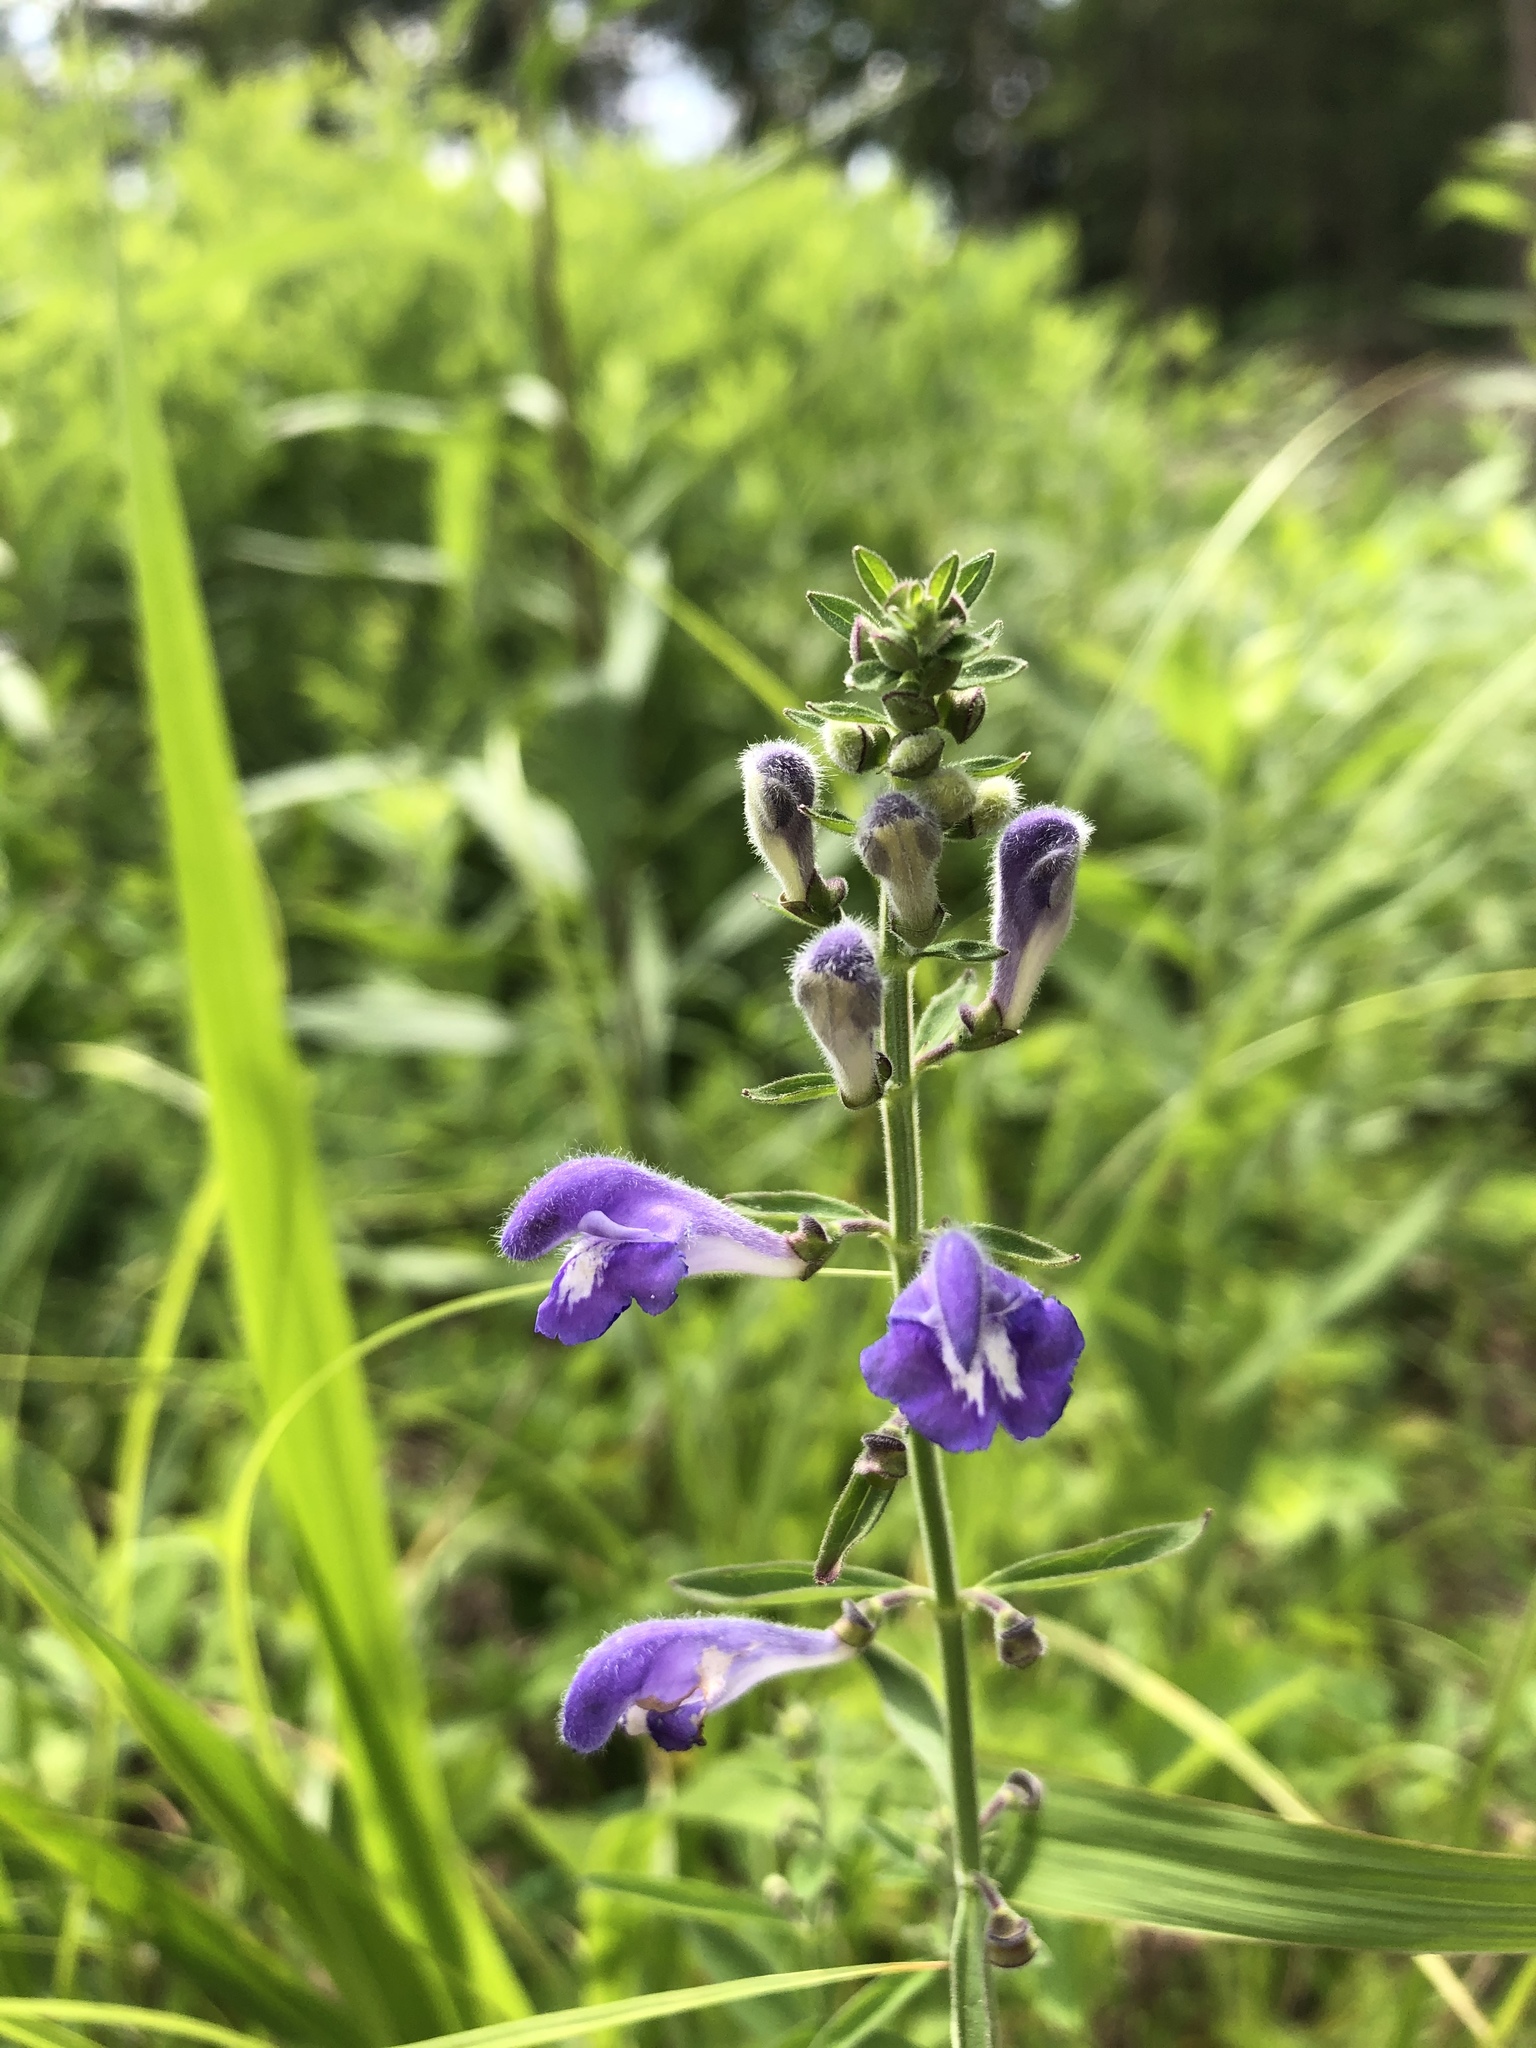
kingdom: Plantae
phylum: Tracheophyta
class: Magnoliopsida
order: Lamiales
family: Lamiaceae
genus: Scutellaria
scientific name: Scutellaria integrifolia
